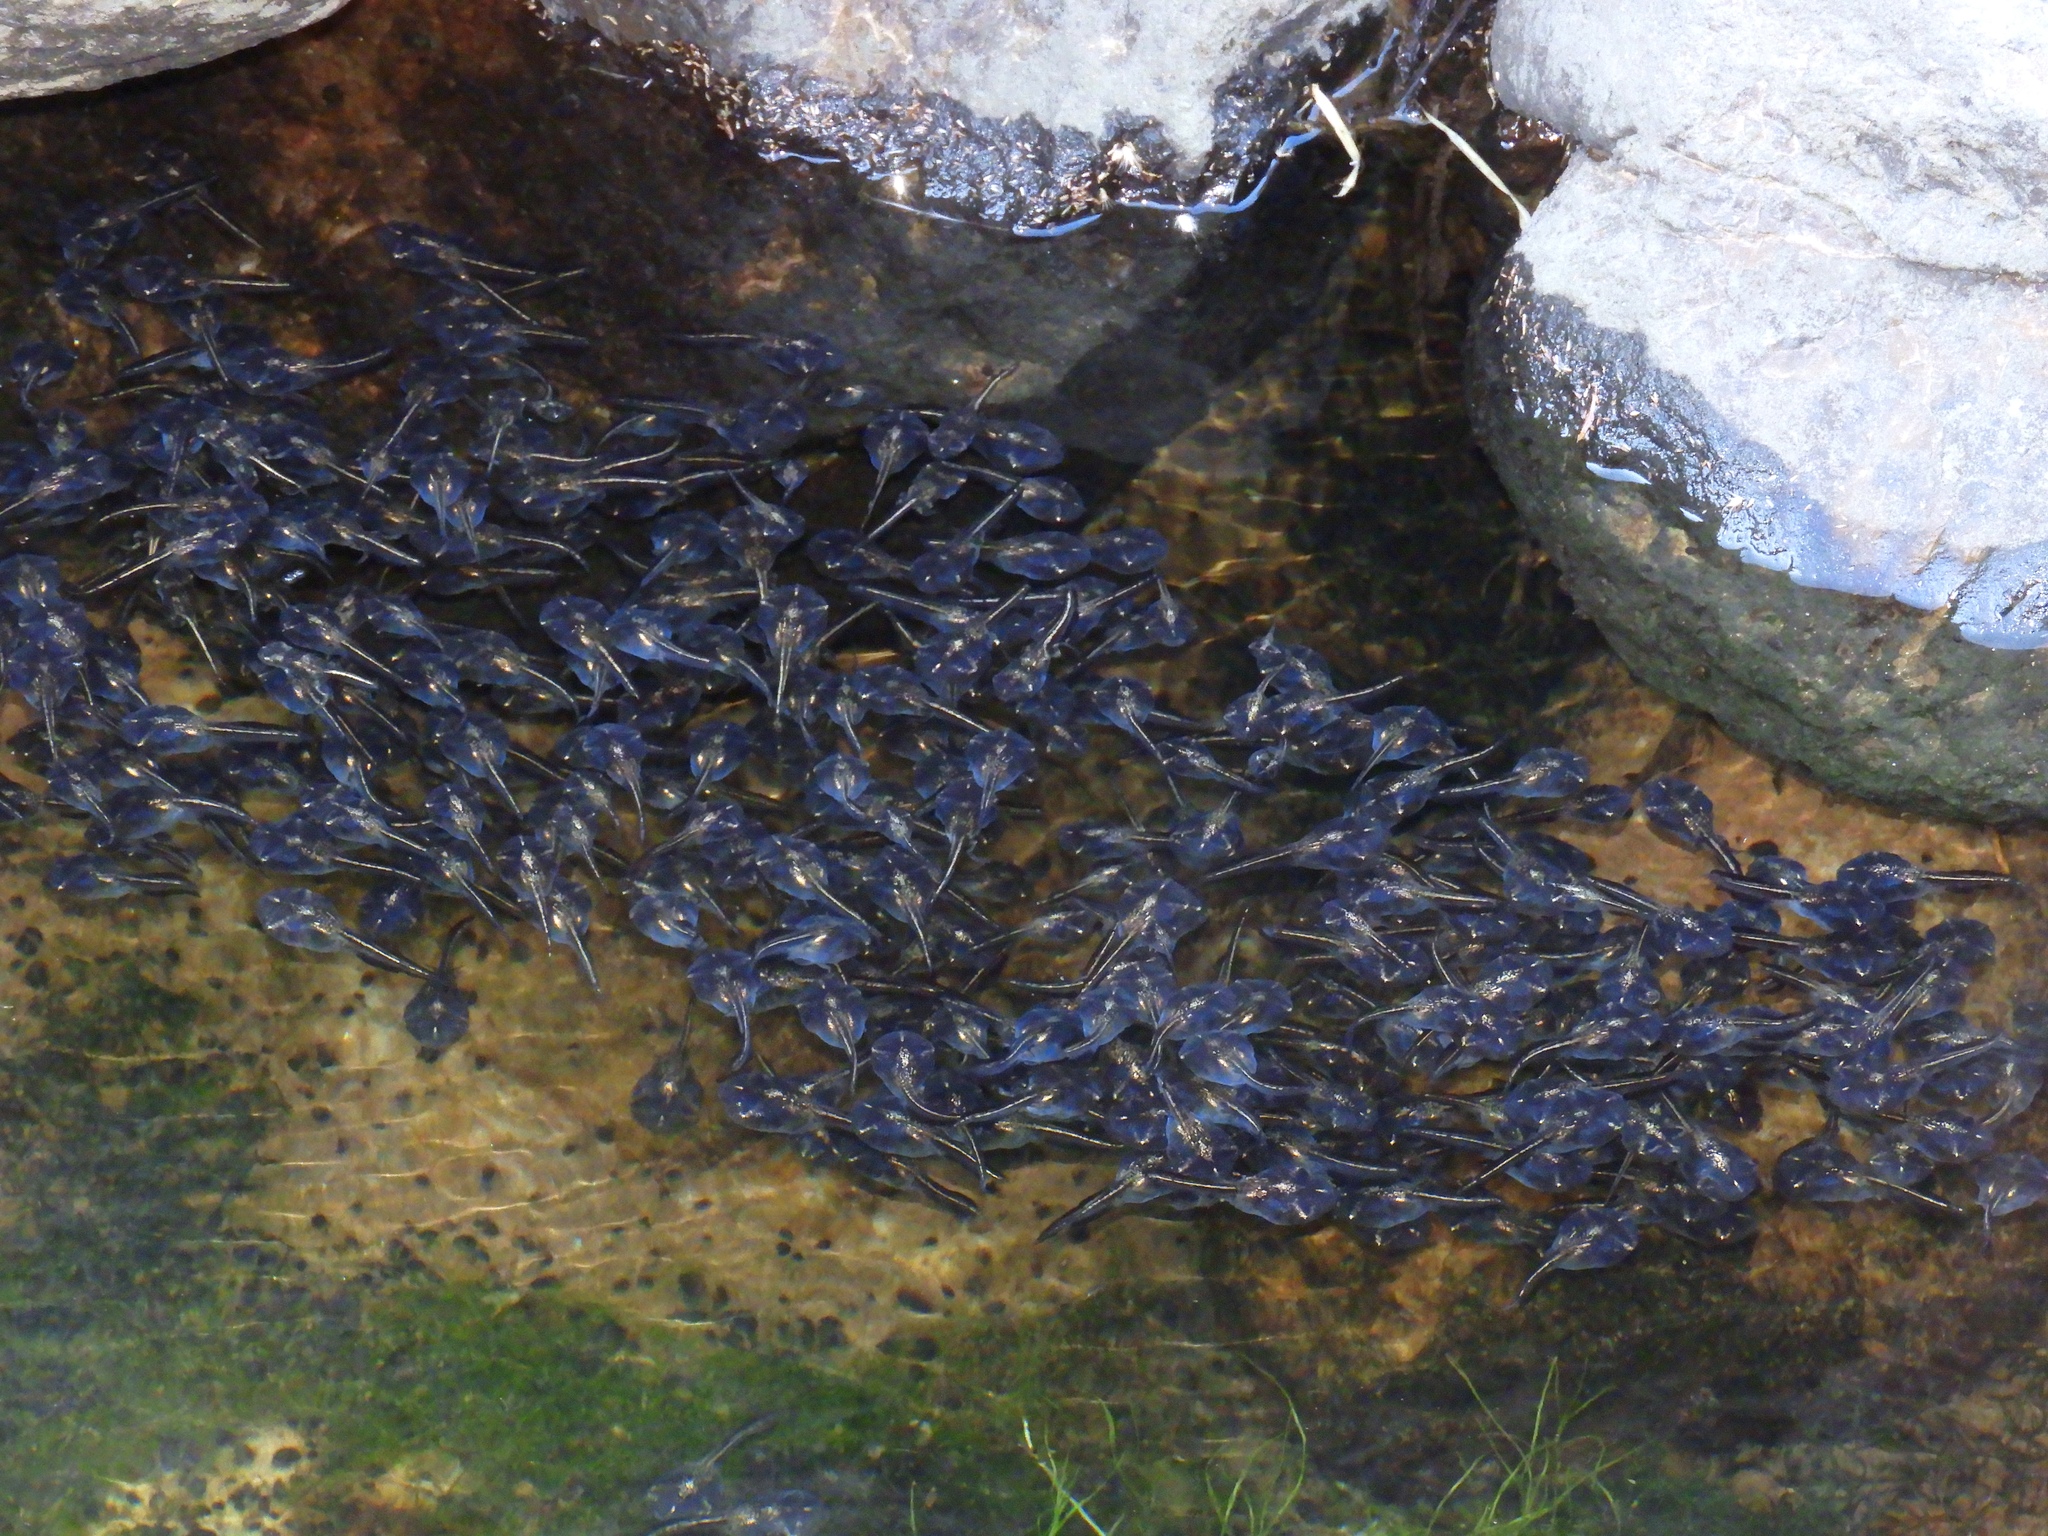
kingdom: Animalia
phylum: Chordata
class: Amphibia
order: Anura
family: Microhylidae
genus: Phrynomantis
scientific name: Phrynomantis annectens
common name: Marbled rubber frog
